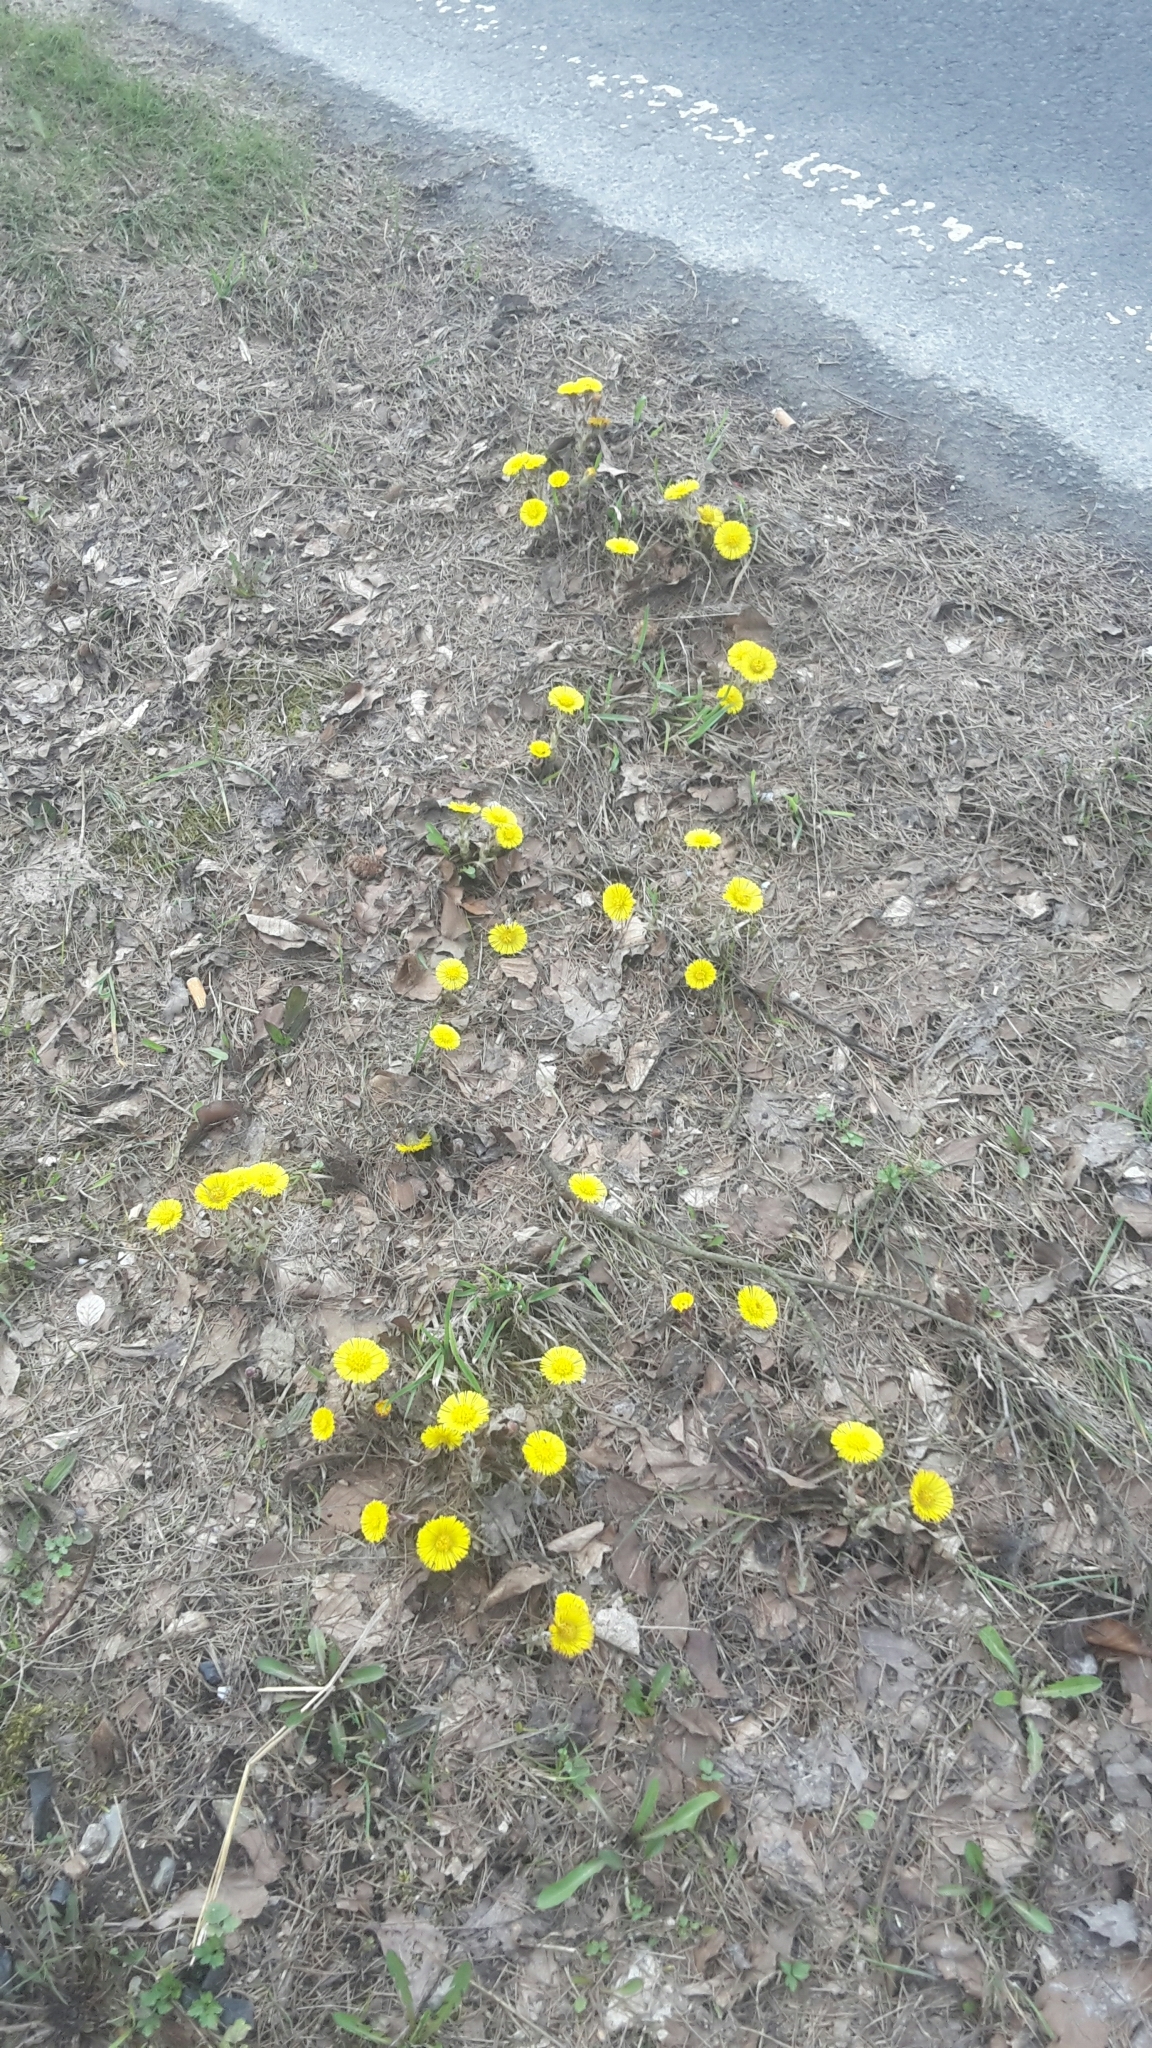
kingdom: Plantae
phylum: Tracheophyta
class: Magnoliopsida
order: Asterales
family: Asteraceae
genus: Tussilago
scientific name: Tussilago farfara
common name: Coltsfoot
